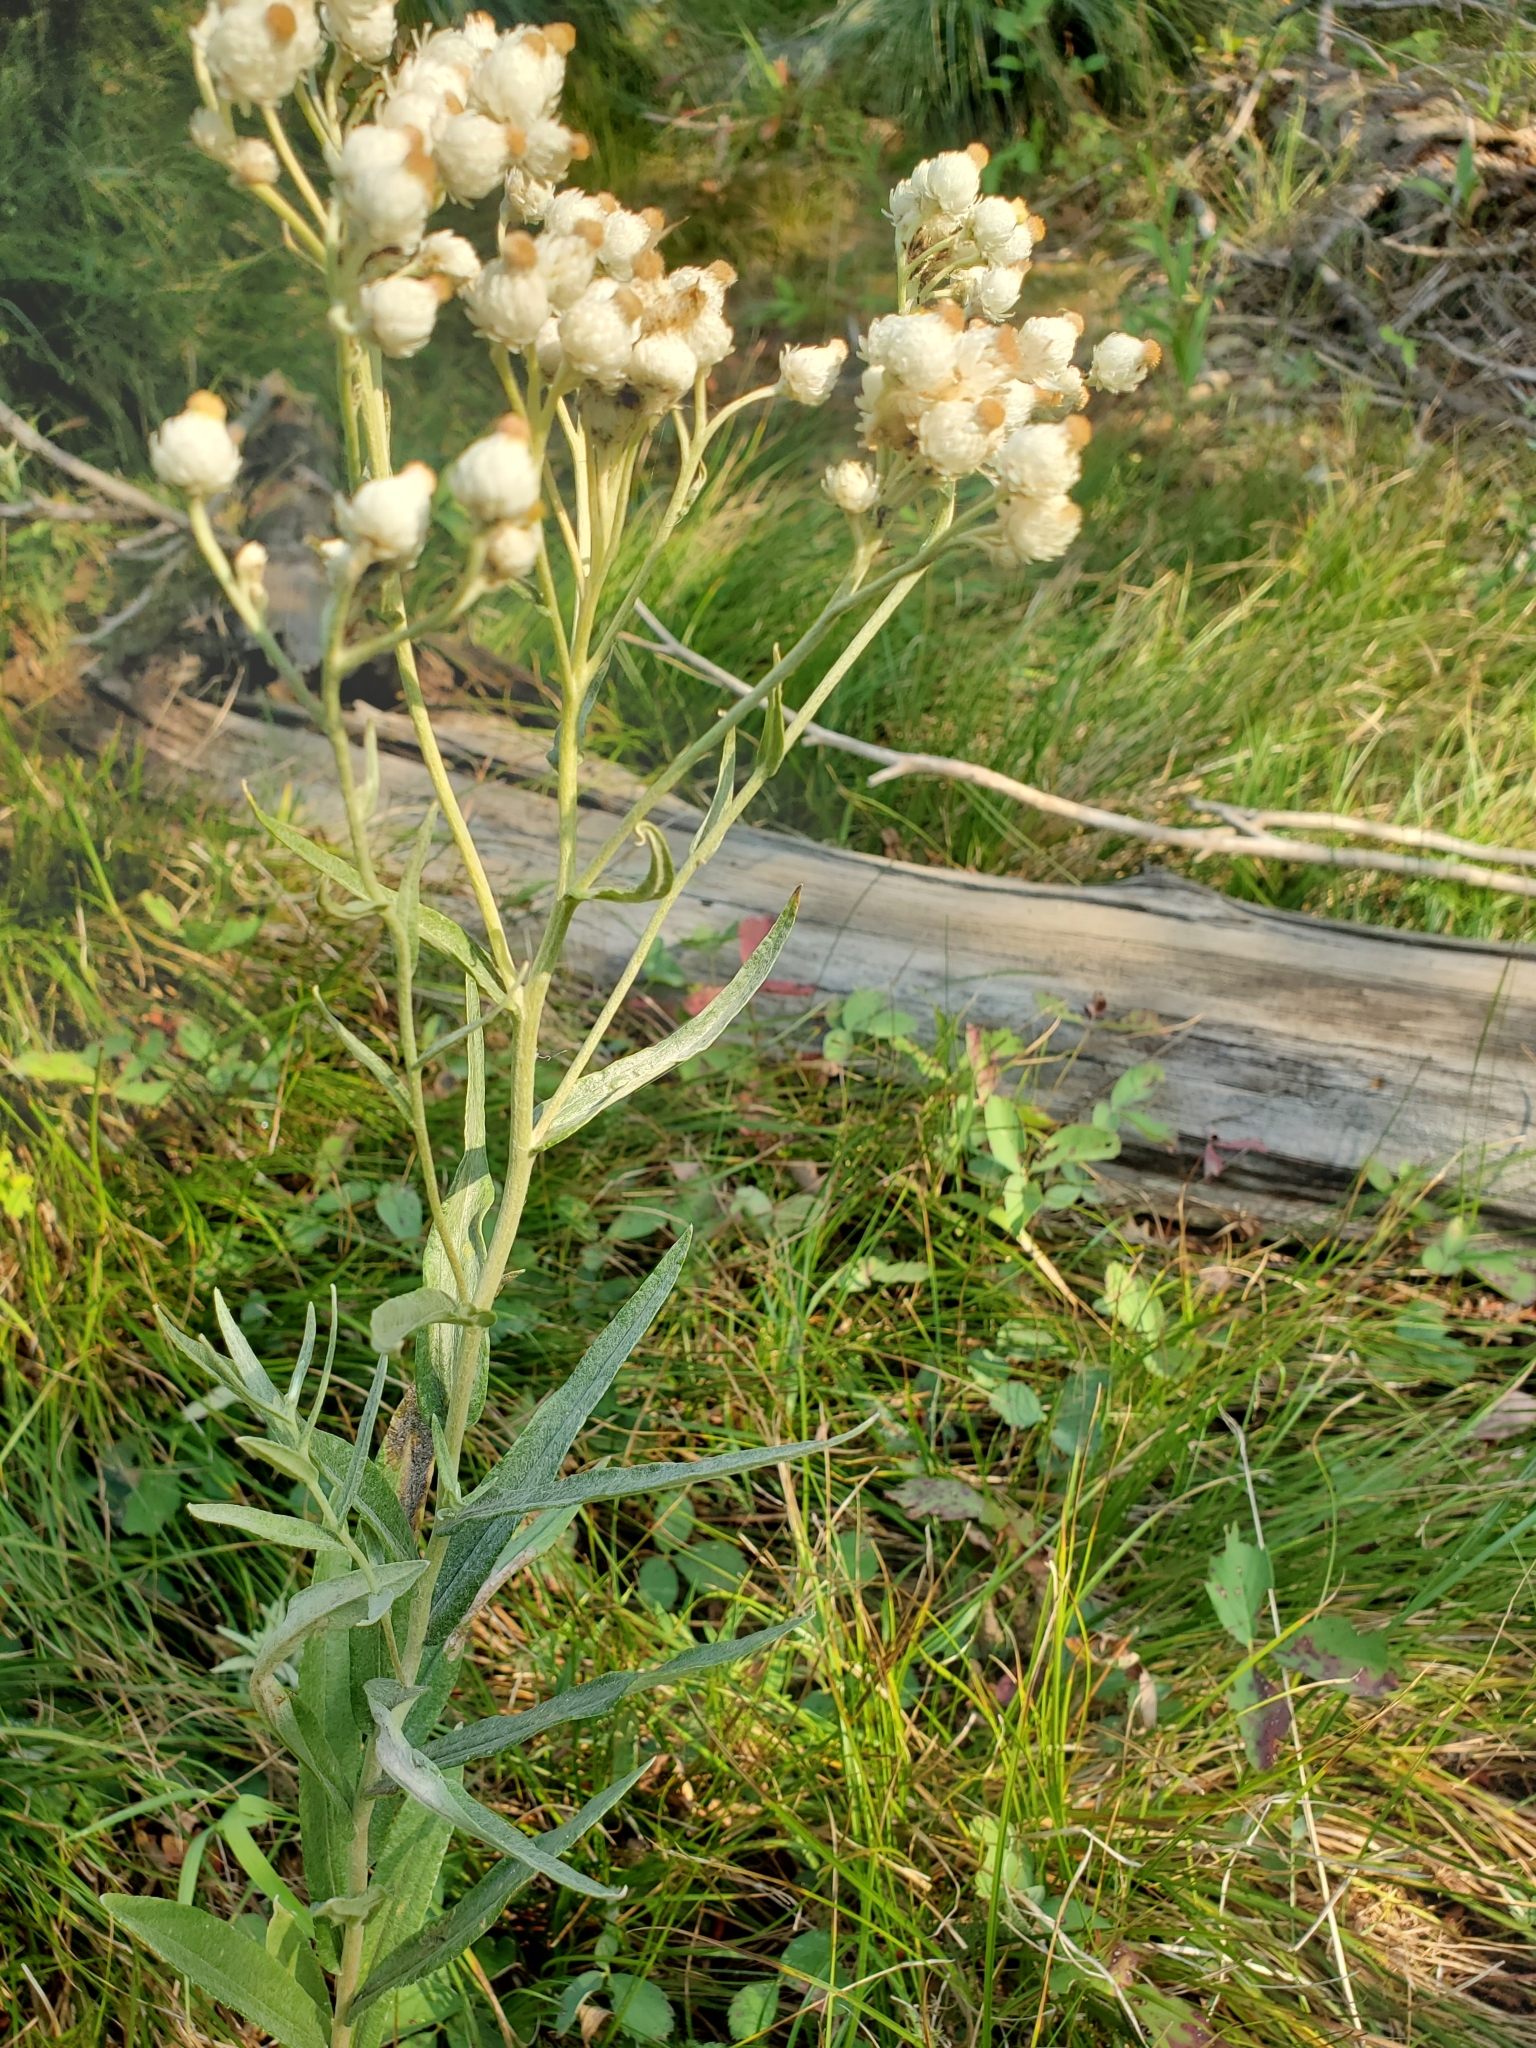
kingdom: Plantae
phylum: Tracheophyta
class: Magnoliopsida
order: Asterales
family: Asteraceae
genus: Anaphalis
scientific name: Anaphalis margaritacea
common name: Pearly everlasting
